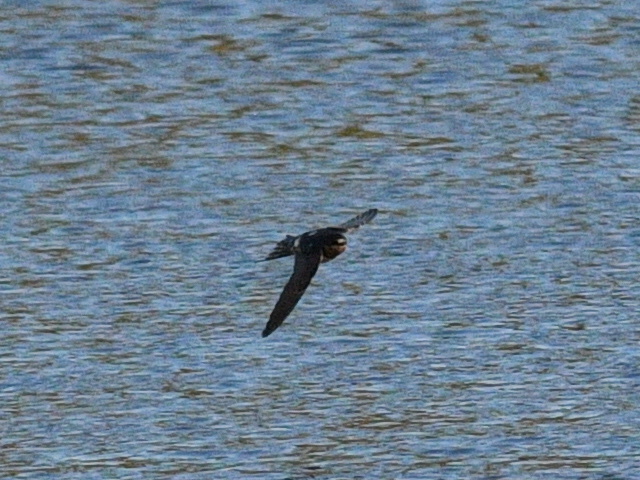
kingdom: Animalia
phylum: Chordata
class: Aves
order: Passeriformes
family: Hirundinidae
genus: Hirundo
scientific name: Hirundo rustica
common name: Barn swallow
